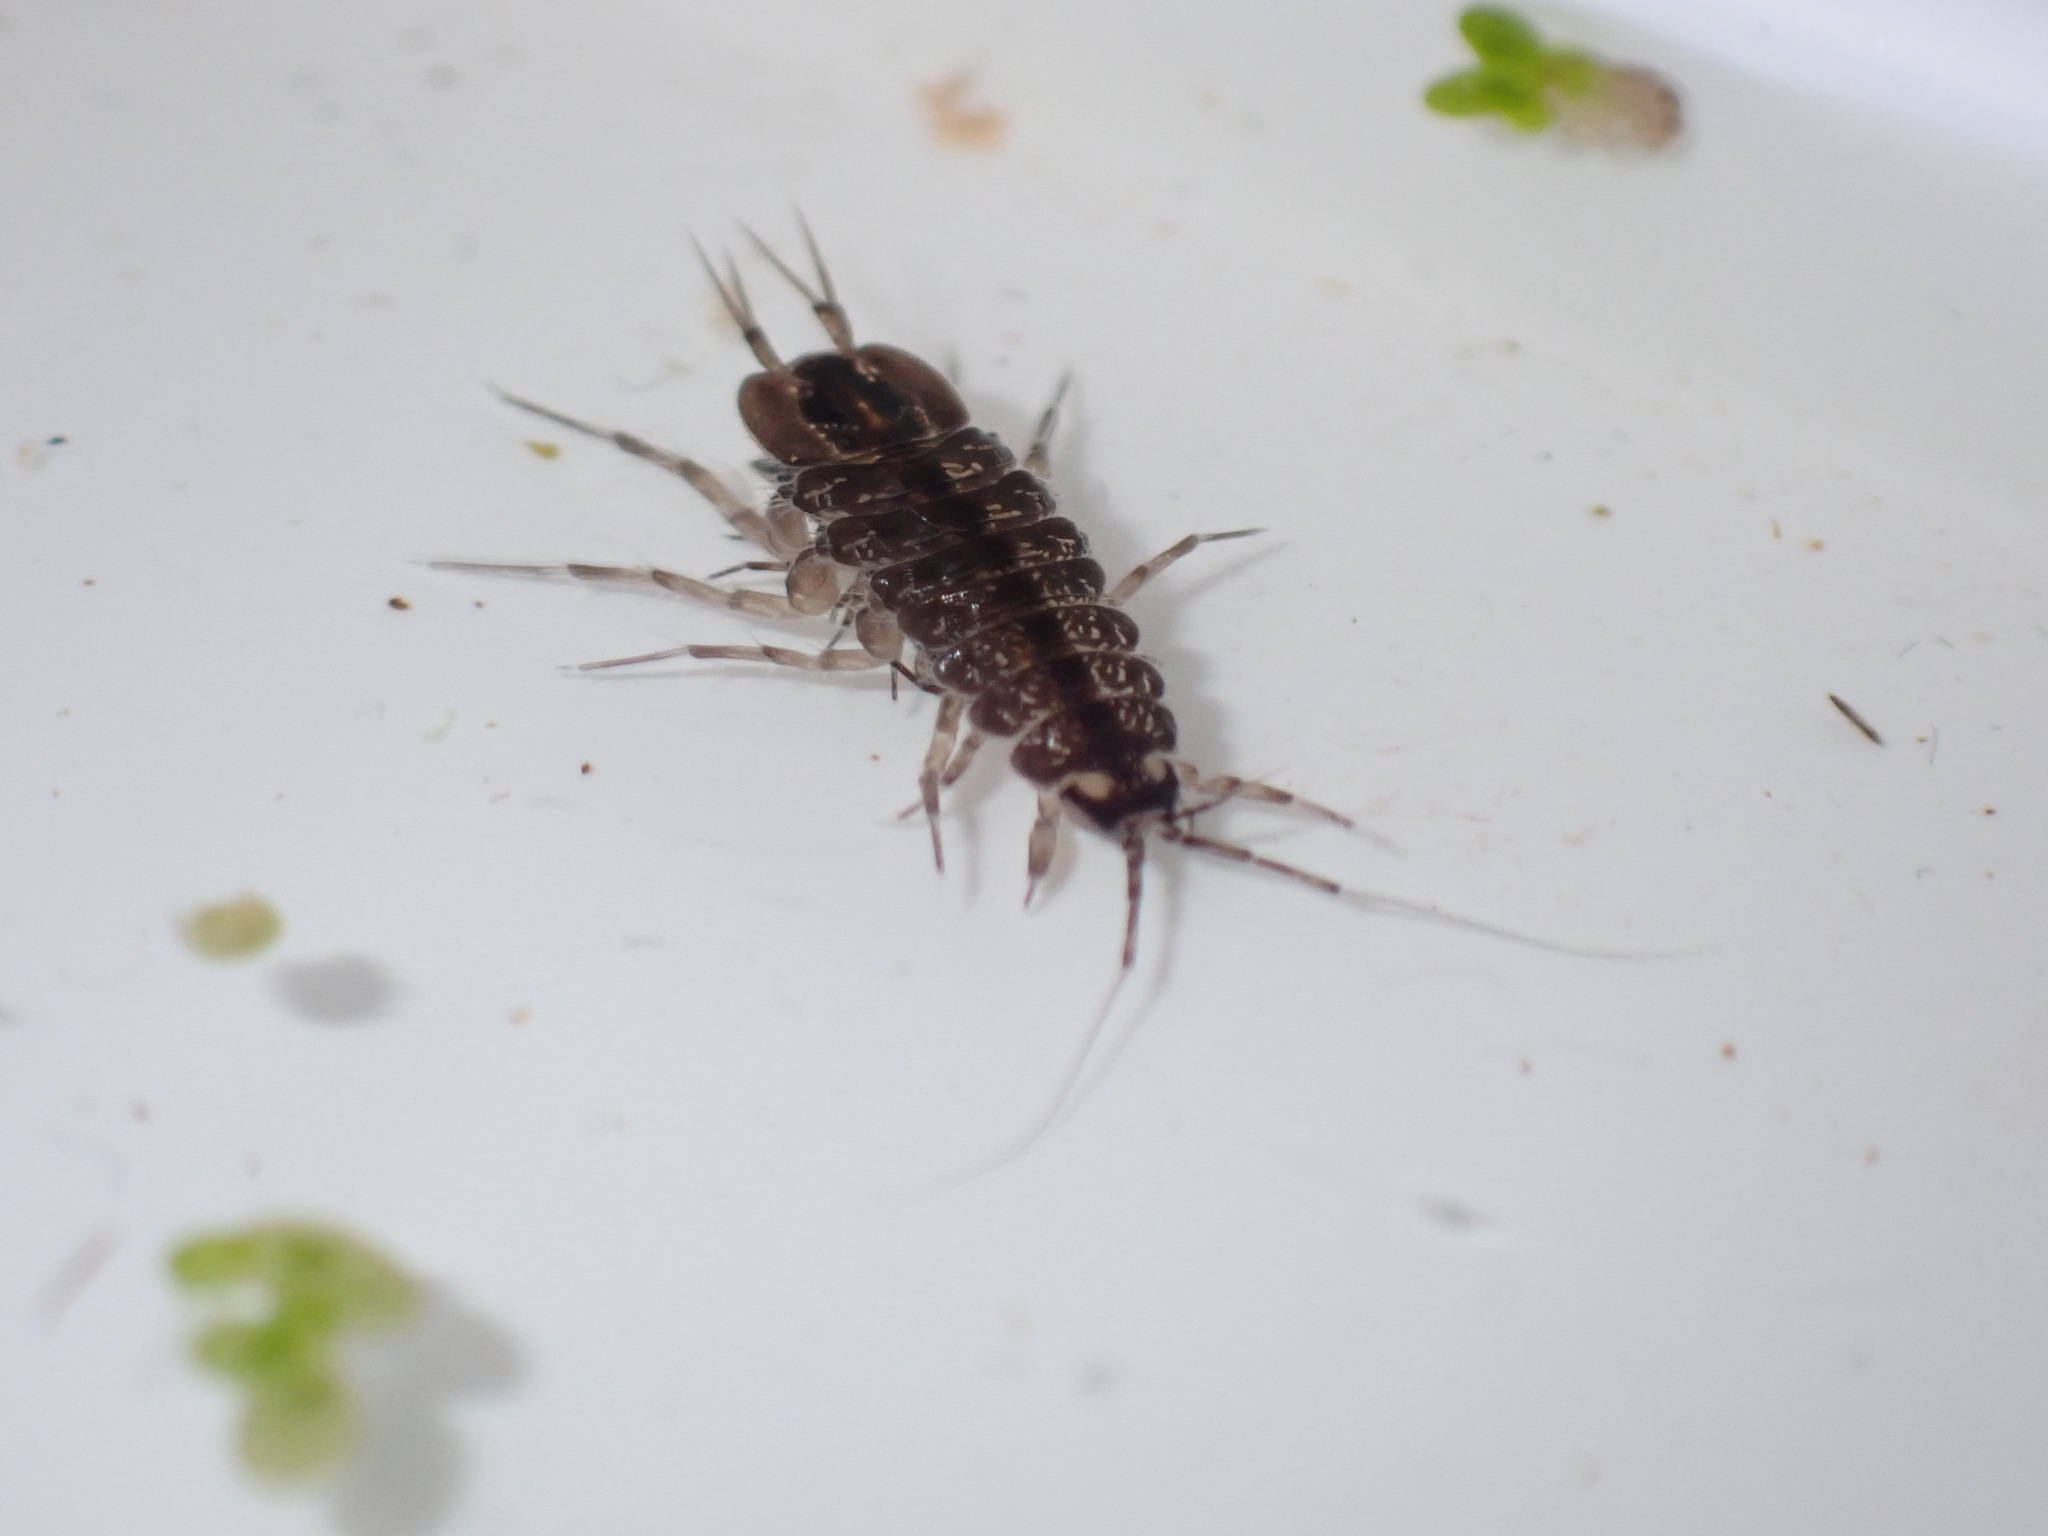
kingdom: Animalia
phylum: Arthropoda
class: Malacostraca
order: Isopoda
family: Asellidae
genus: Asellus
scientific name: Asellus aquaticus
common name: Water hog lice/slaters
